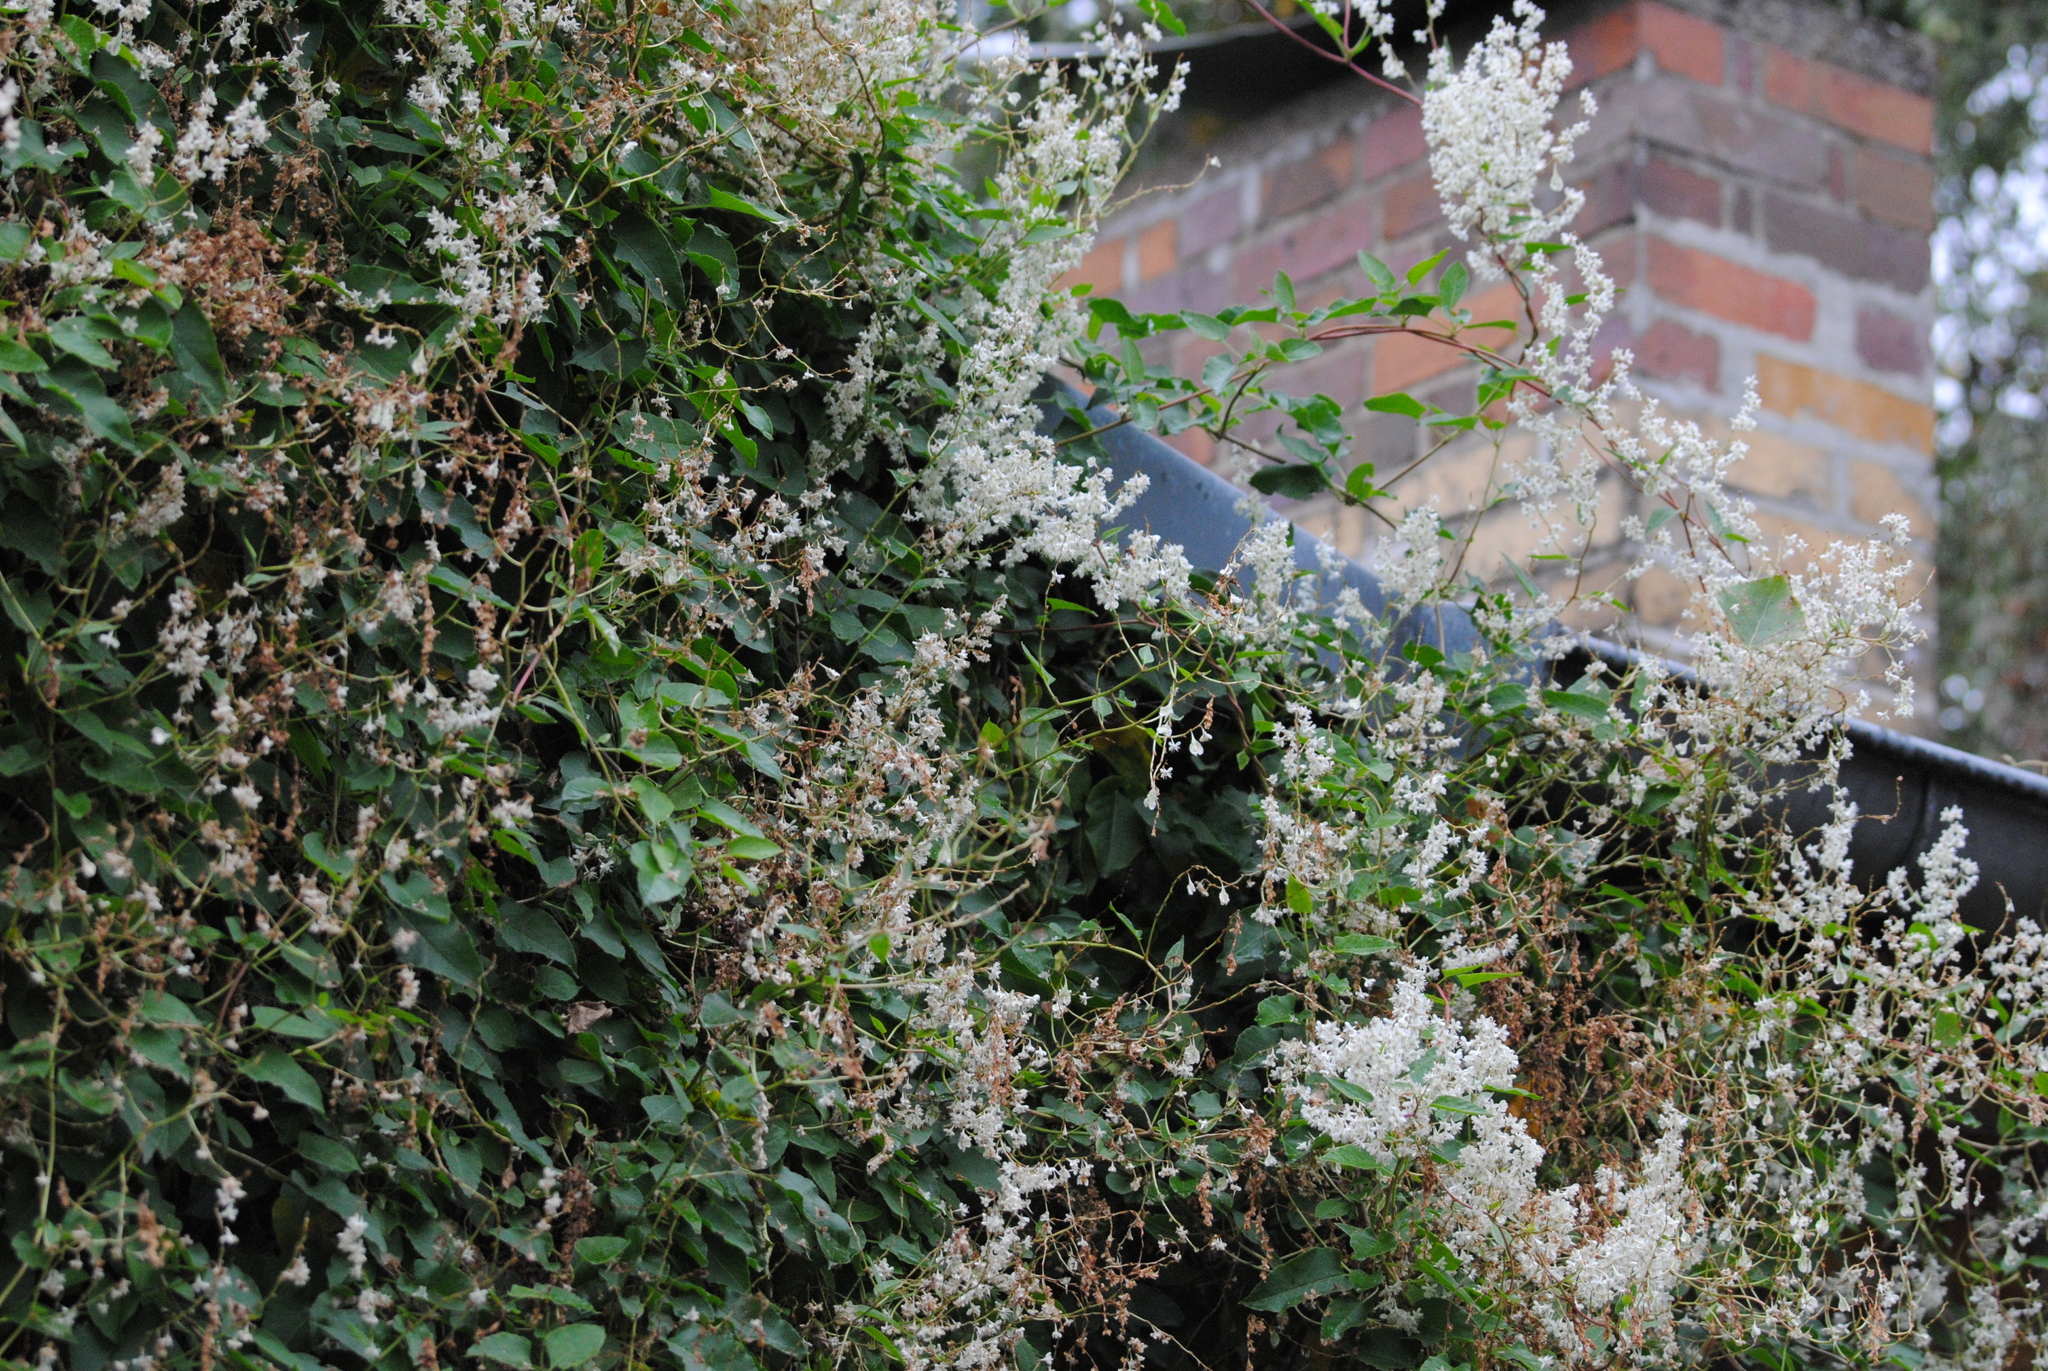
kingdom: Plantae
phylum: Tracheophyta
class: Magnoliopsida
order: Caryophyllales
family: Polygonaceae
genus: Fallopia
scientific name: Fallopia baldschuanica
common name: Russian-vine
